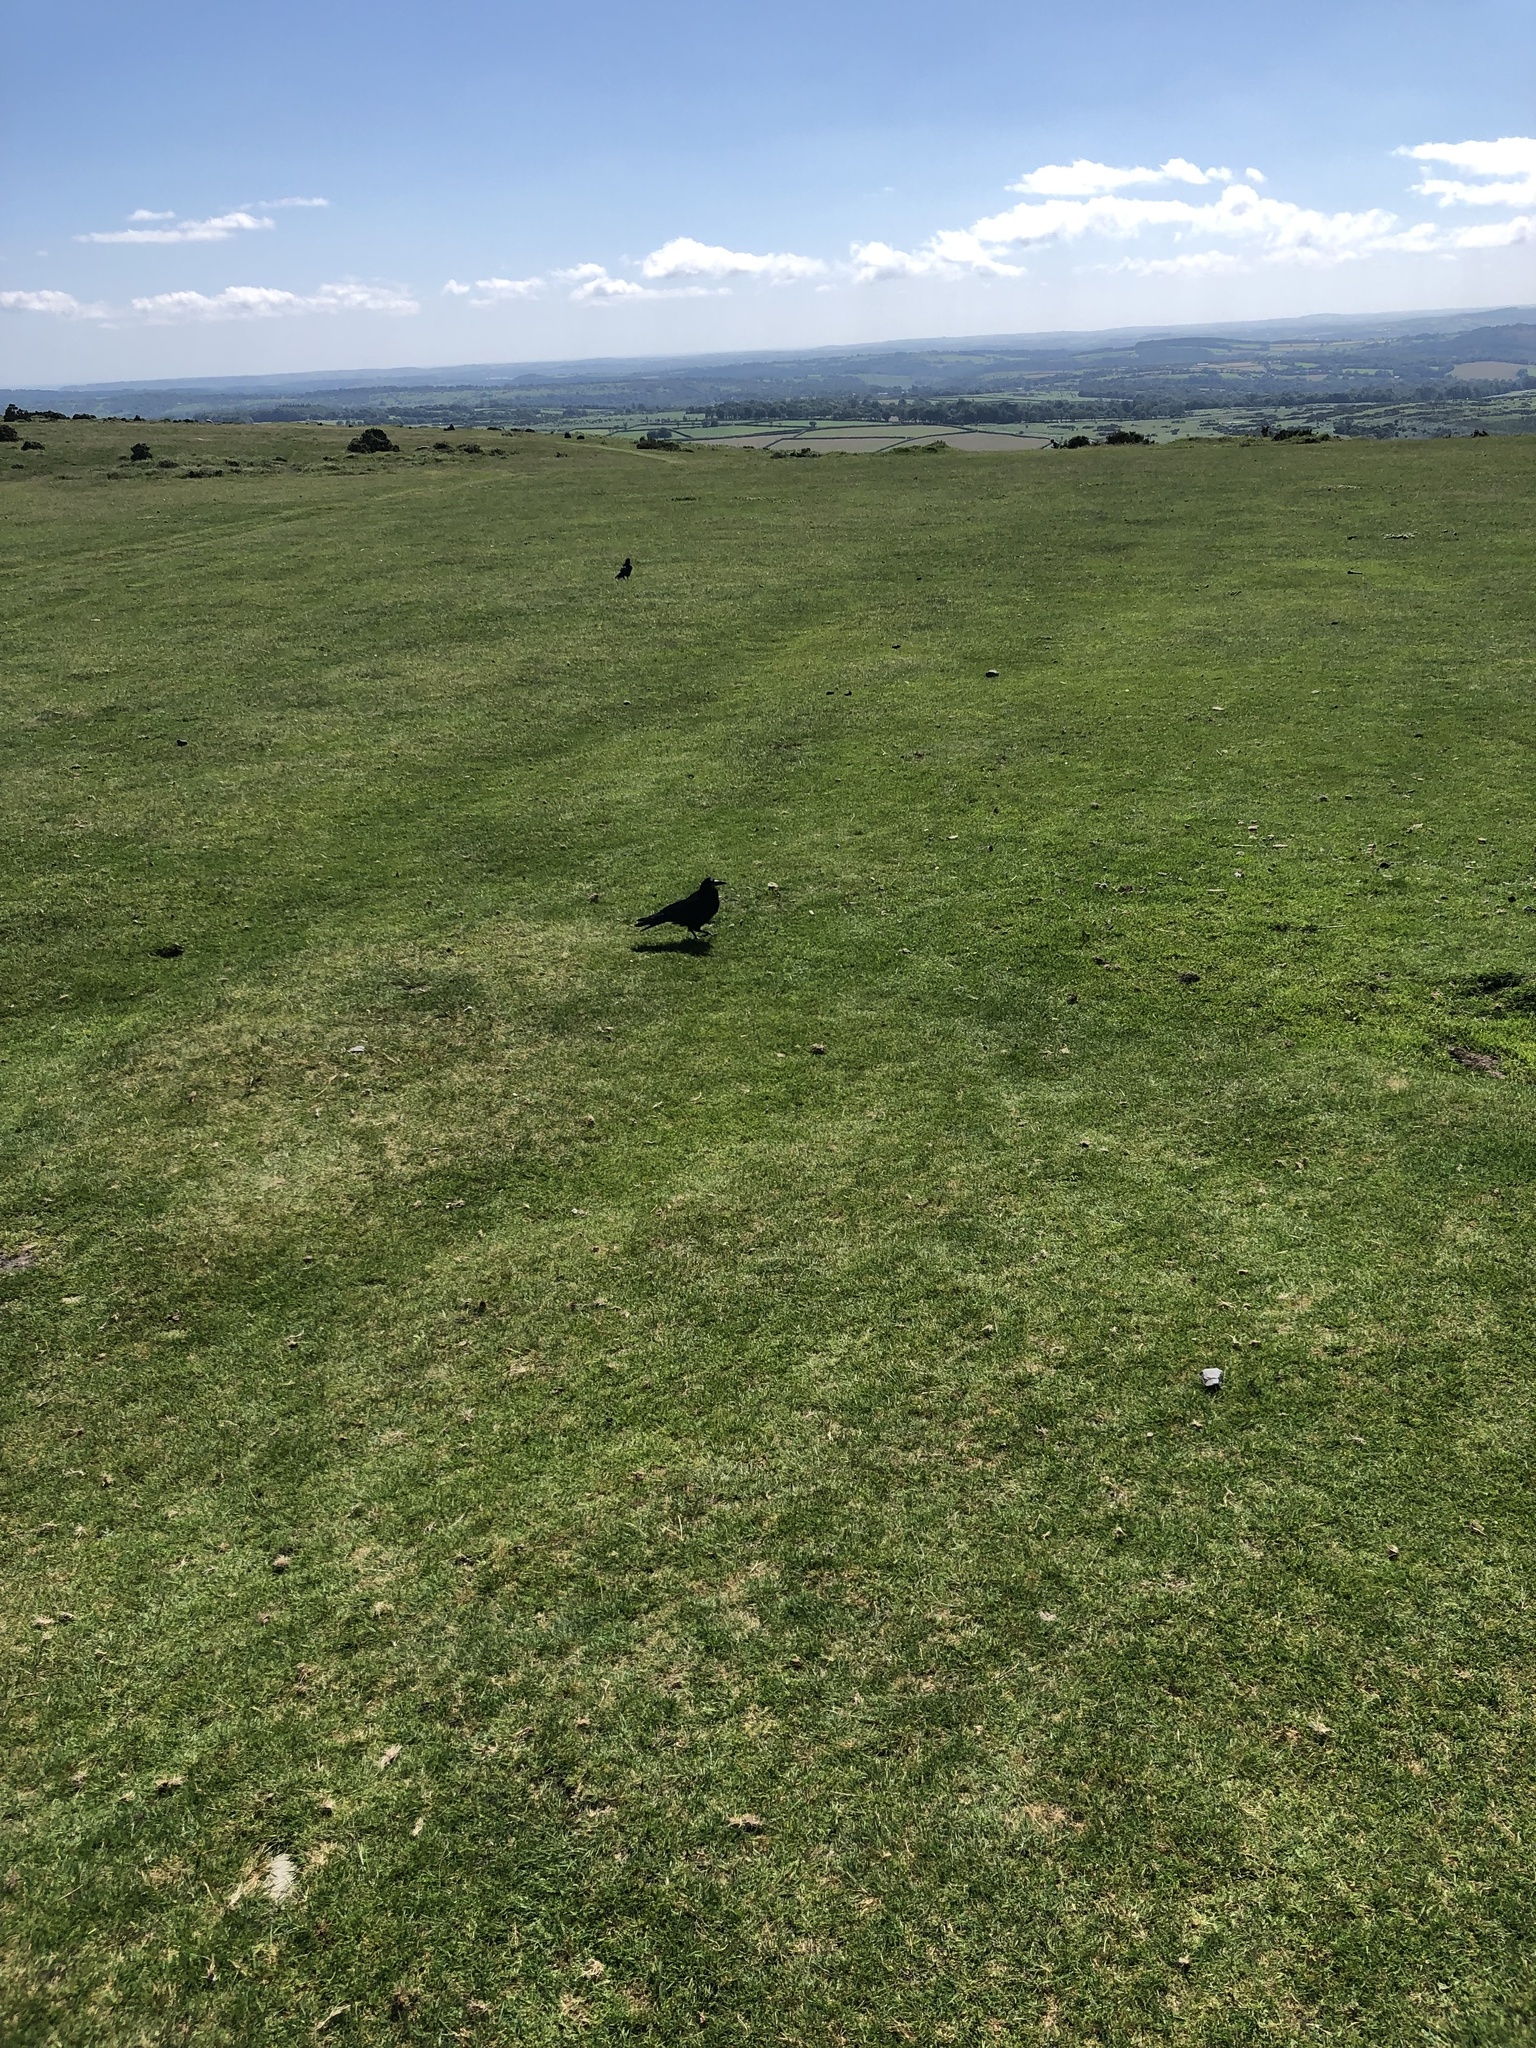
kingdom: Animalia
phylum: Chordata
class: Aves
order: Passeriformes
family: Corvidae
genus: Corvus
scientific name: Corvus frugilegus
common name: Rook
